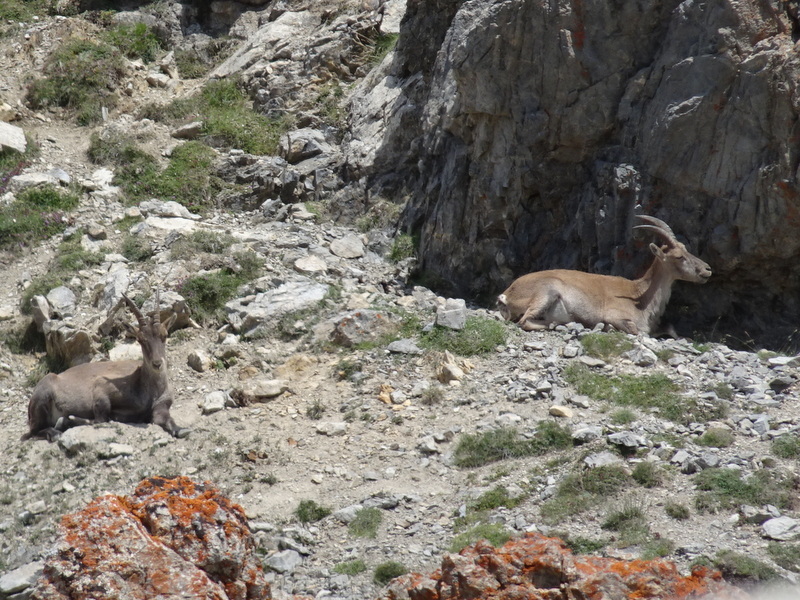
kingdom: Animalia
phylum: Chordata
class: Mammalia
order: Artiodactyla
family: Bovidae
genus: Capra
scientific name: Capra ibex
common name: Alpine ibex
